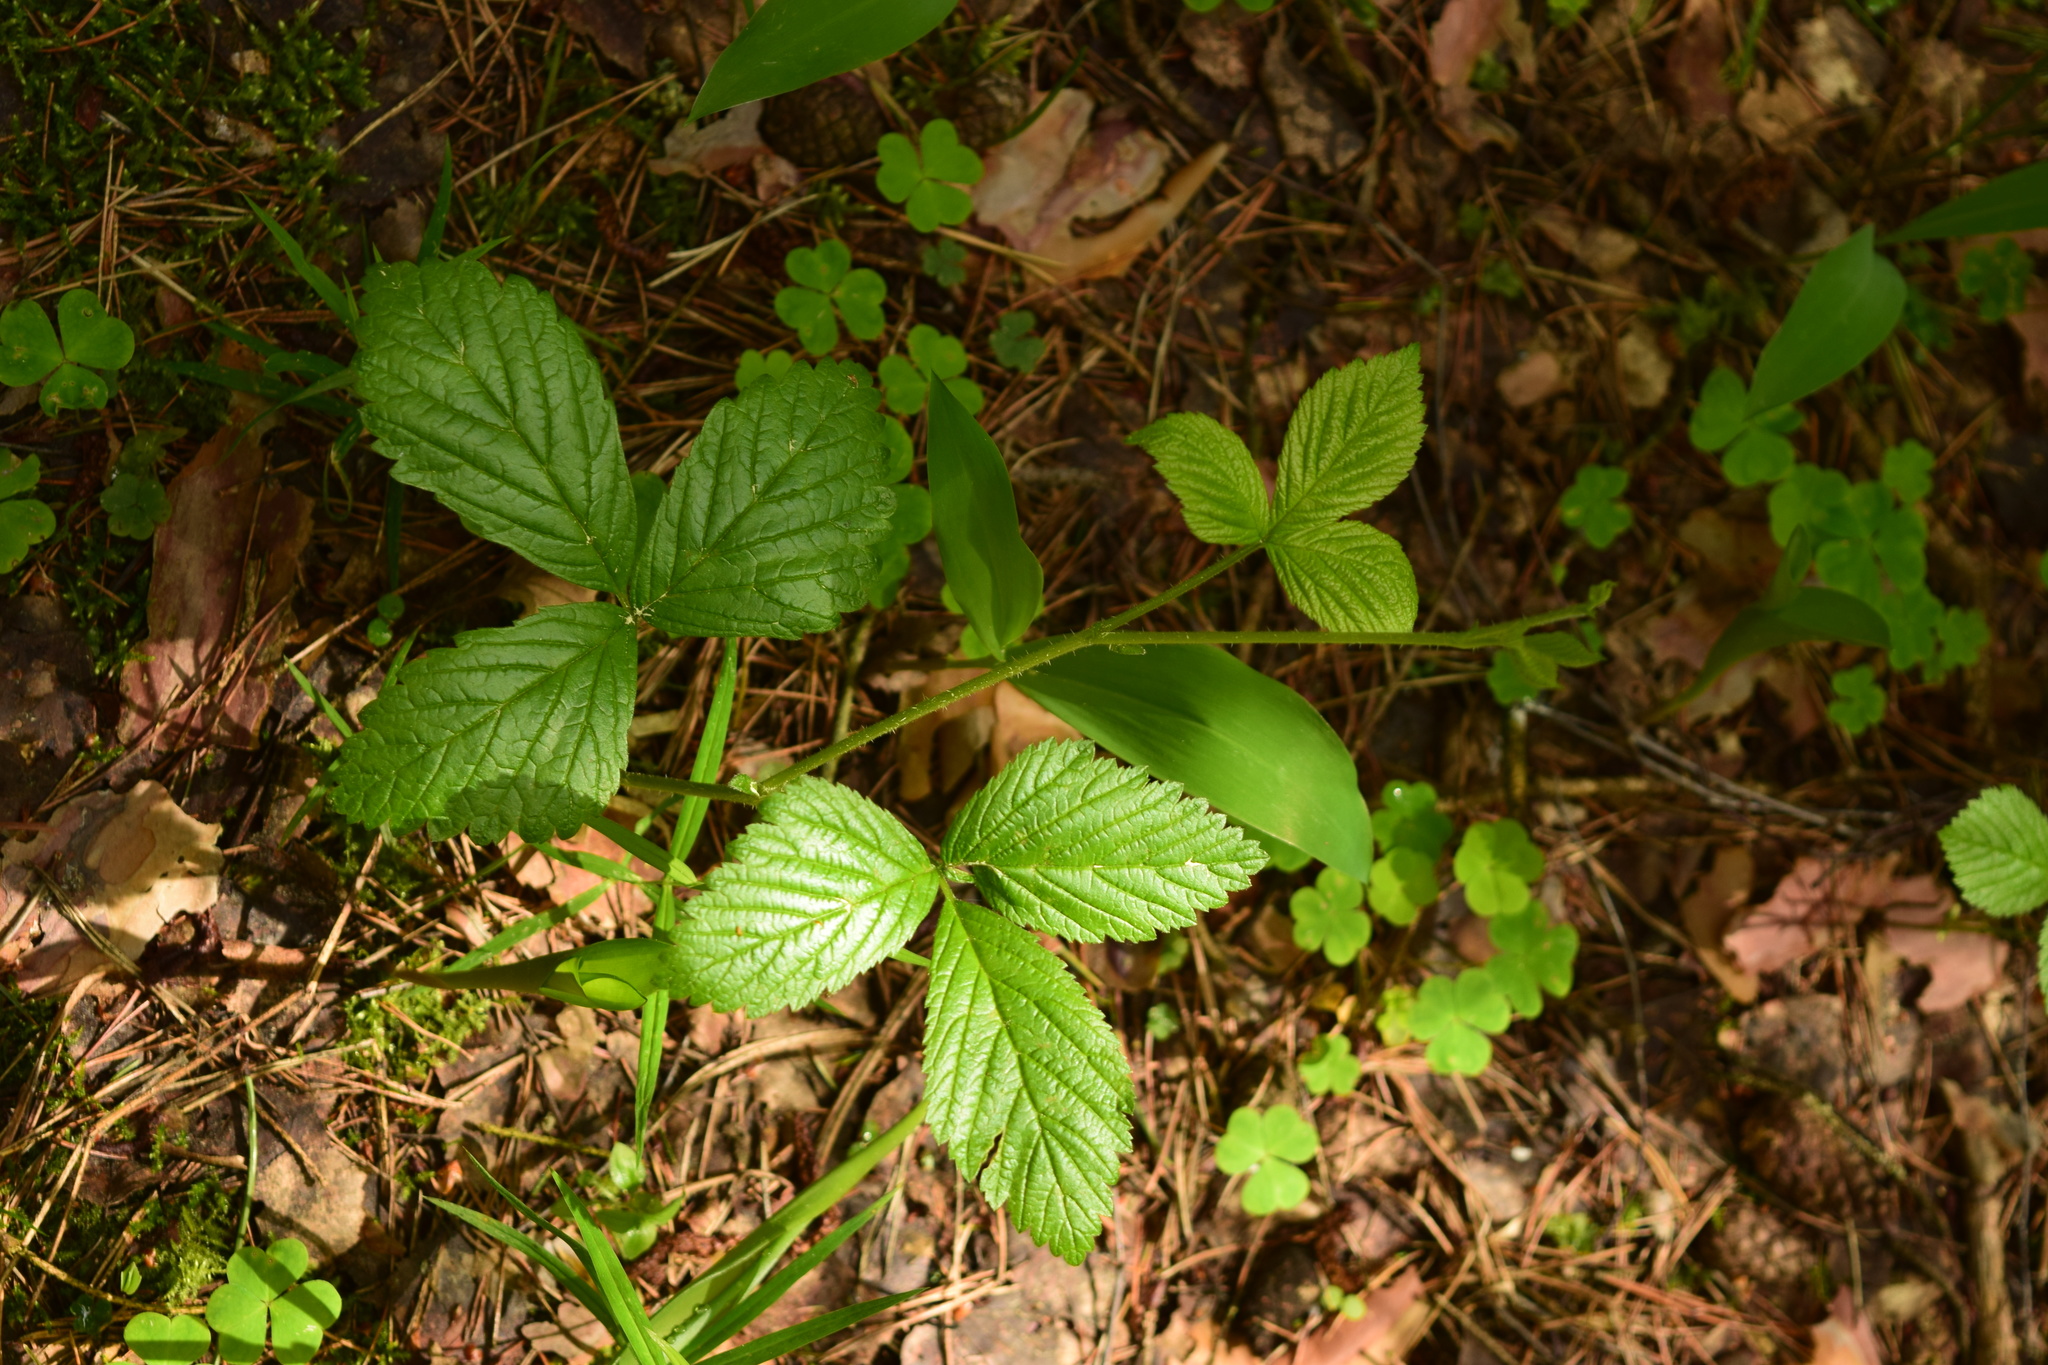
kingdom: Plantae
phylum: Tracheophyta
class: Magnoliopsida
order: Rosales
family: Rosaceae
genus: Rubus
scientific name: Rubus saxatilis
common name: Stone bramble
